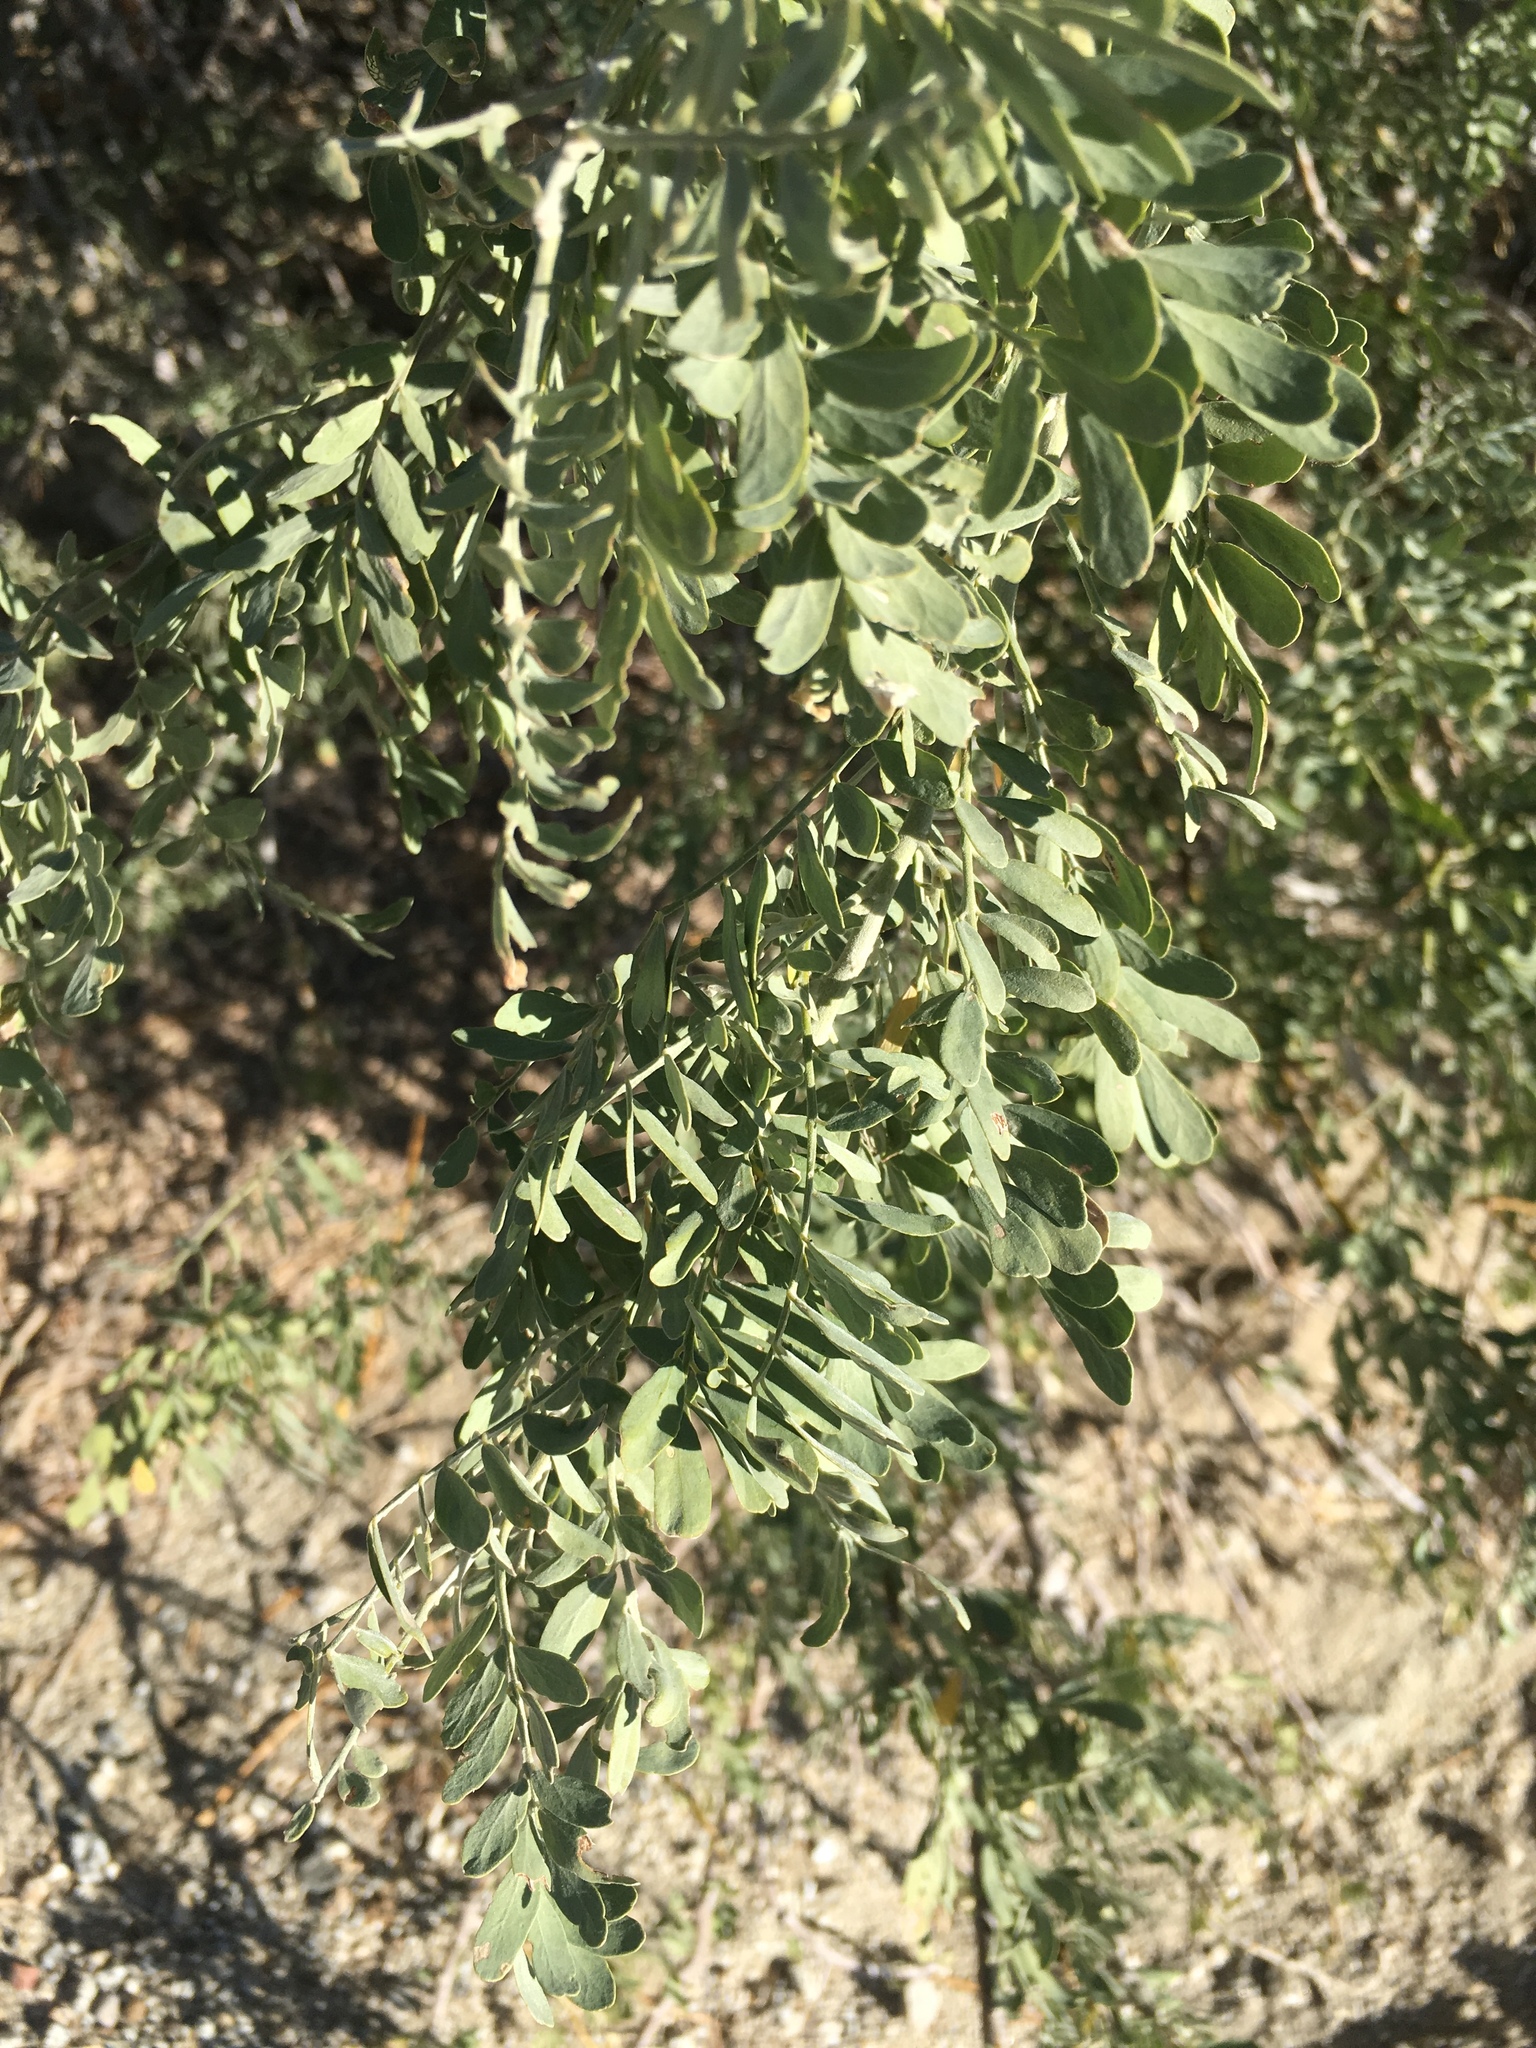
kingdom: Plantae
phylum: Tracheophyta
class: Magnoliopsida
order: Fabales
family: Fabaceae
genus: Olneya
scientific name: Olneya tesota
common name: Desert ironwood
